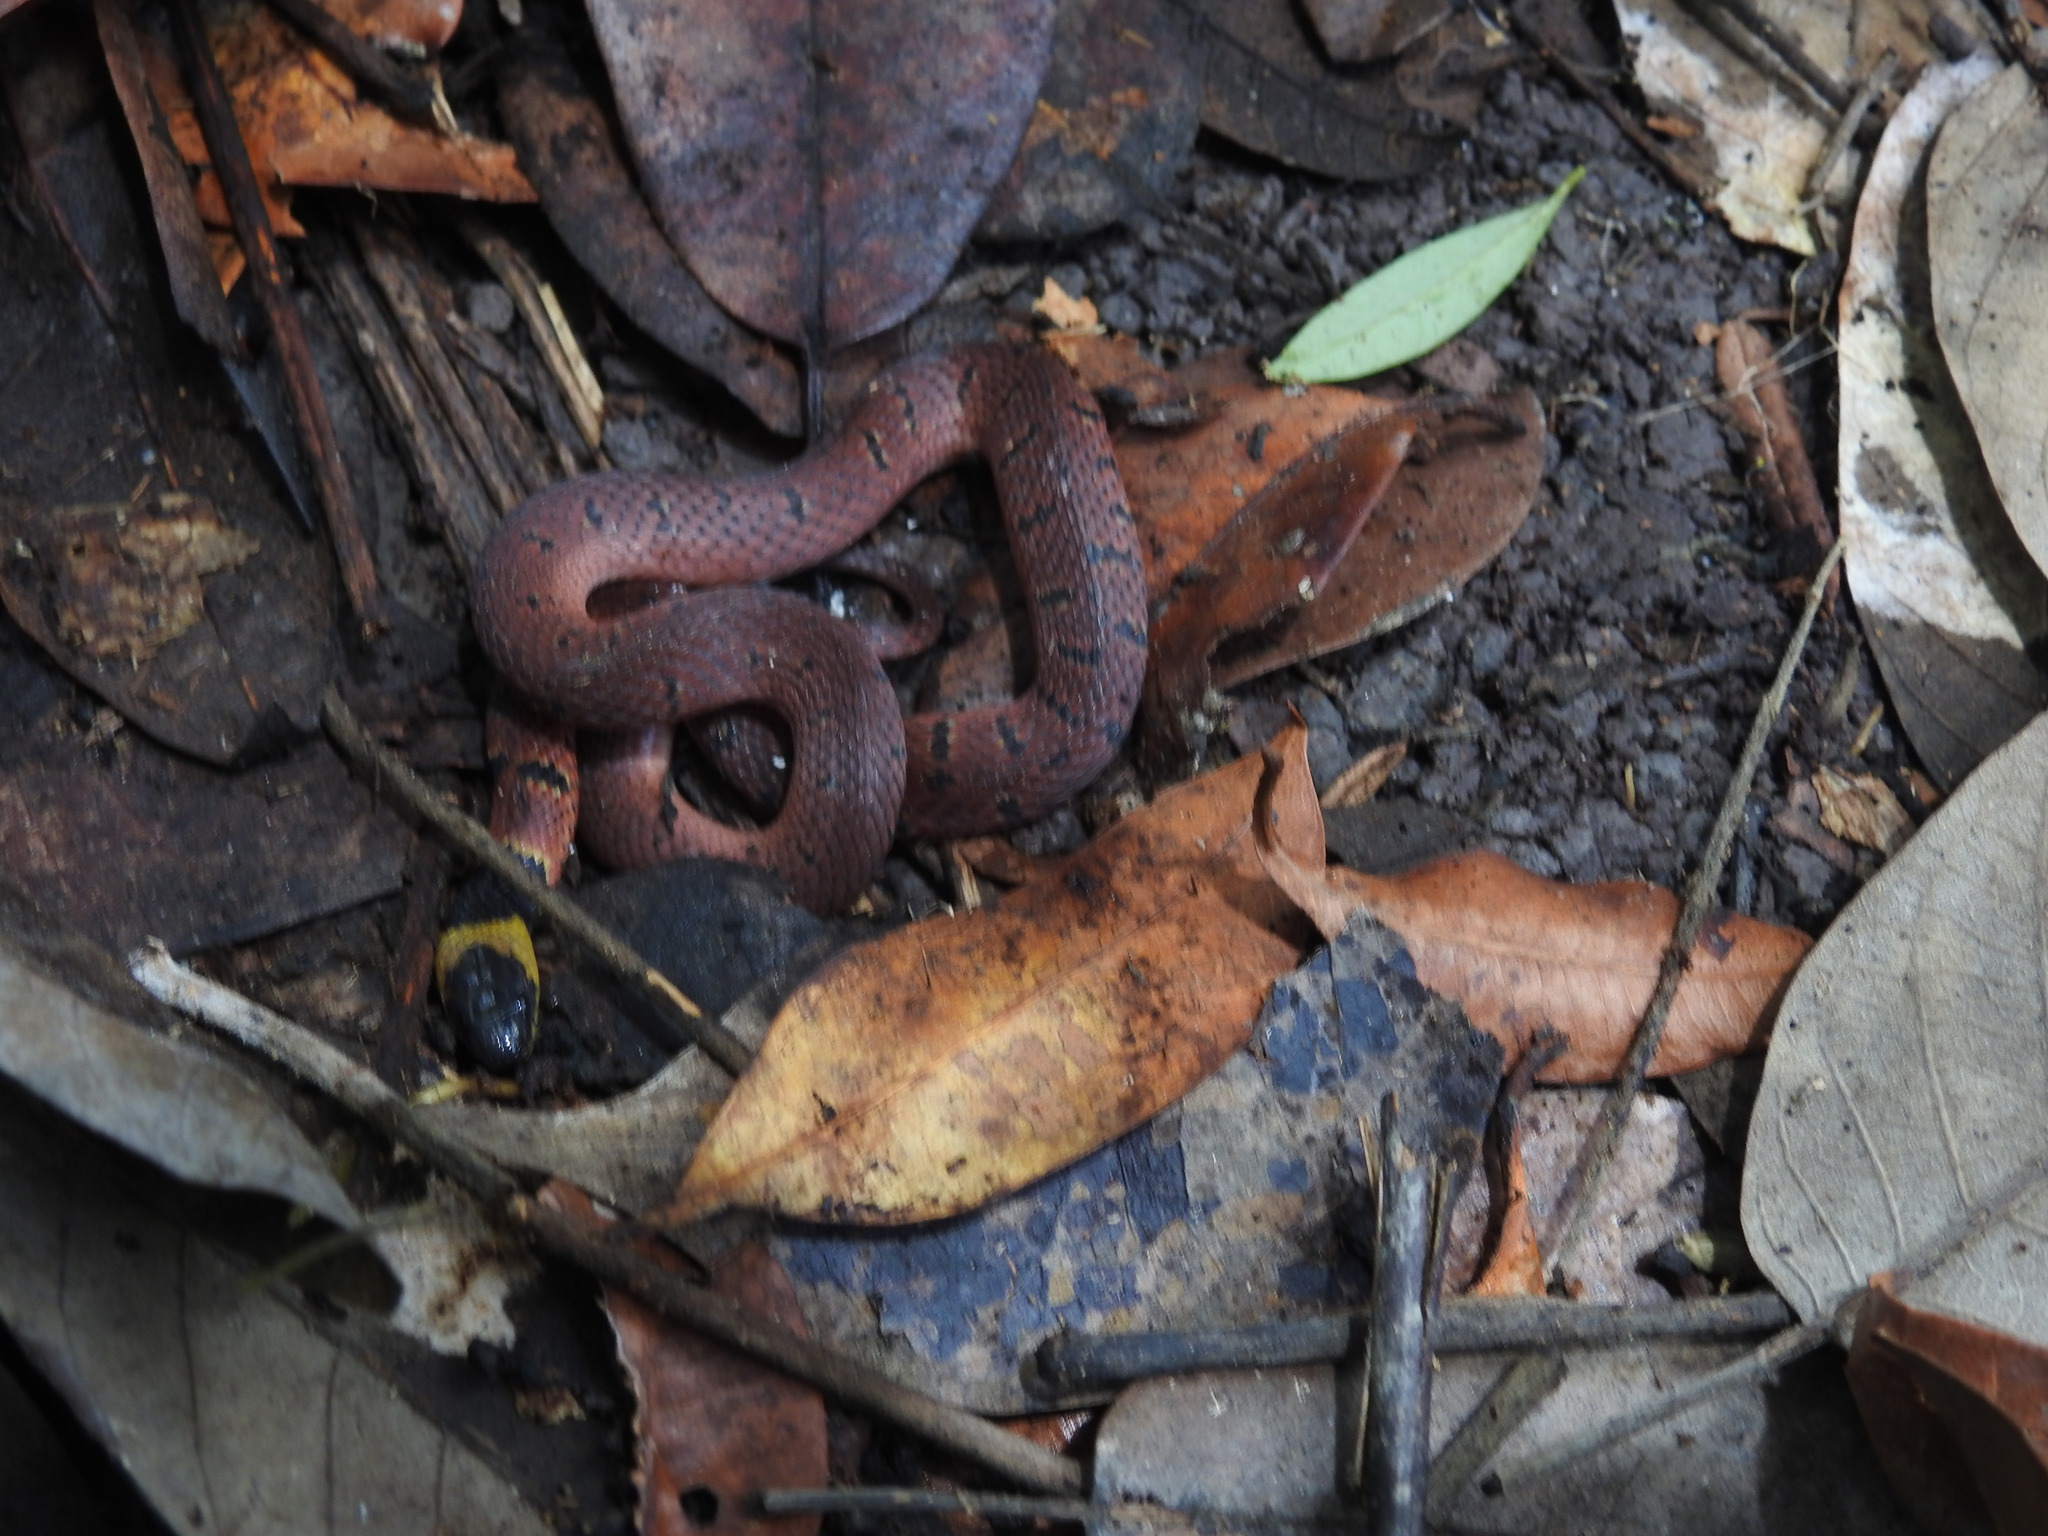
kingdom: Animalia
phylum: Chordata
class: Squamata
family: Colubridae
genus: Ninia
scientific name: Ninia sebae
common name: Redback coffee snake
